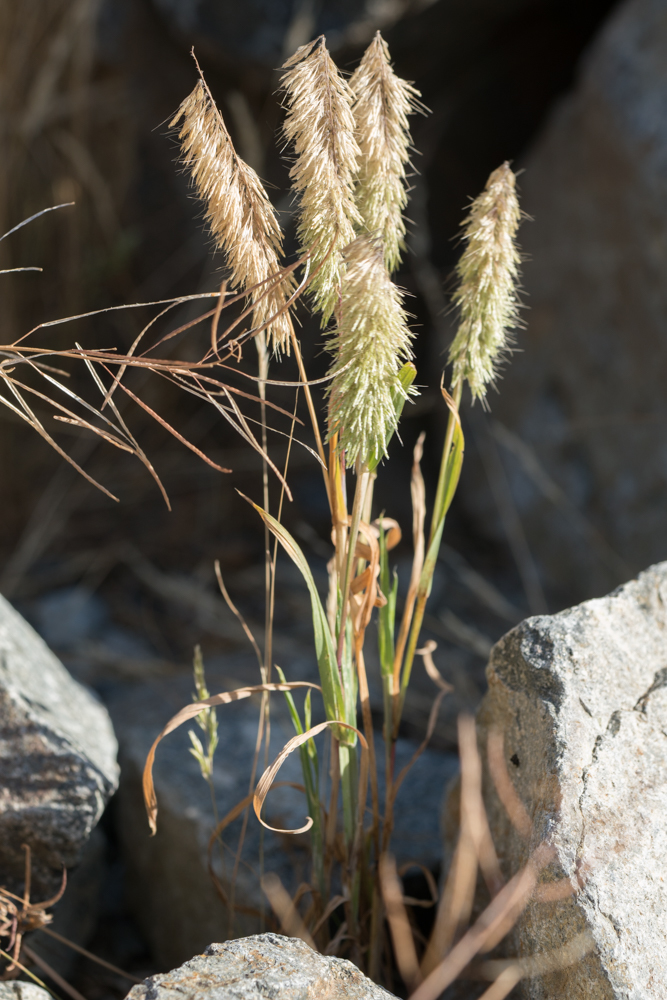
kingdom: Plantae
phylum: Tracheophyta
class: Liliopsida
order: Poales
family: Poaceae
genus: Lamarckia
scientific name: Lamarckia aurea
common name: Golden dog's-tail
